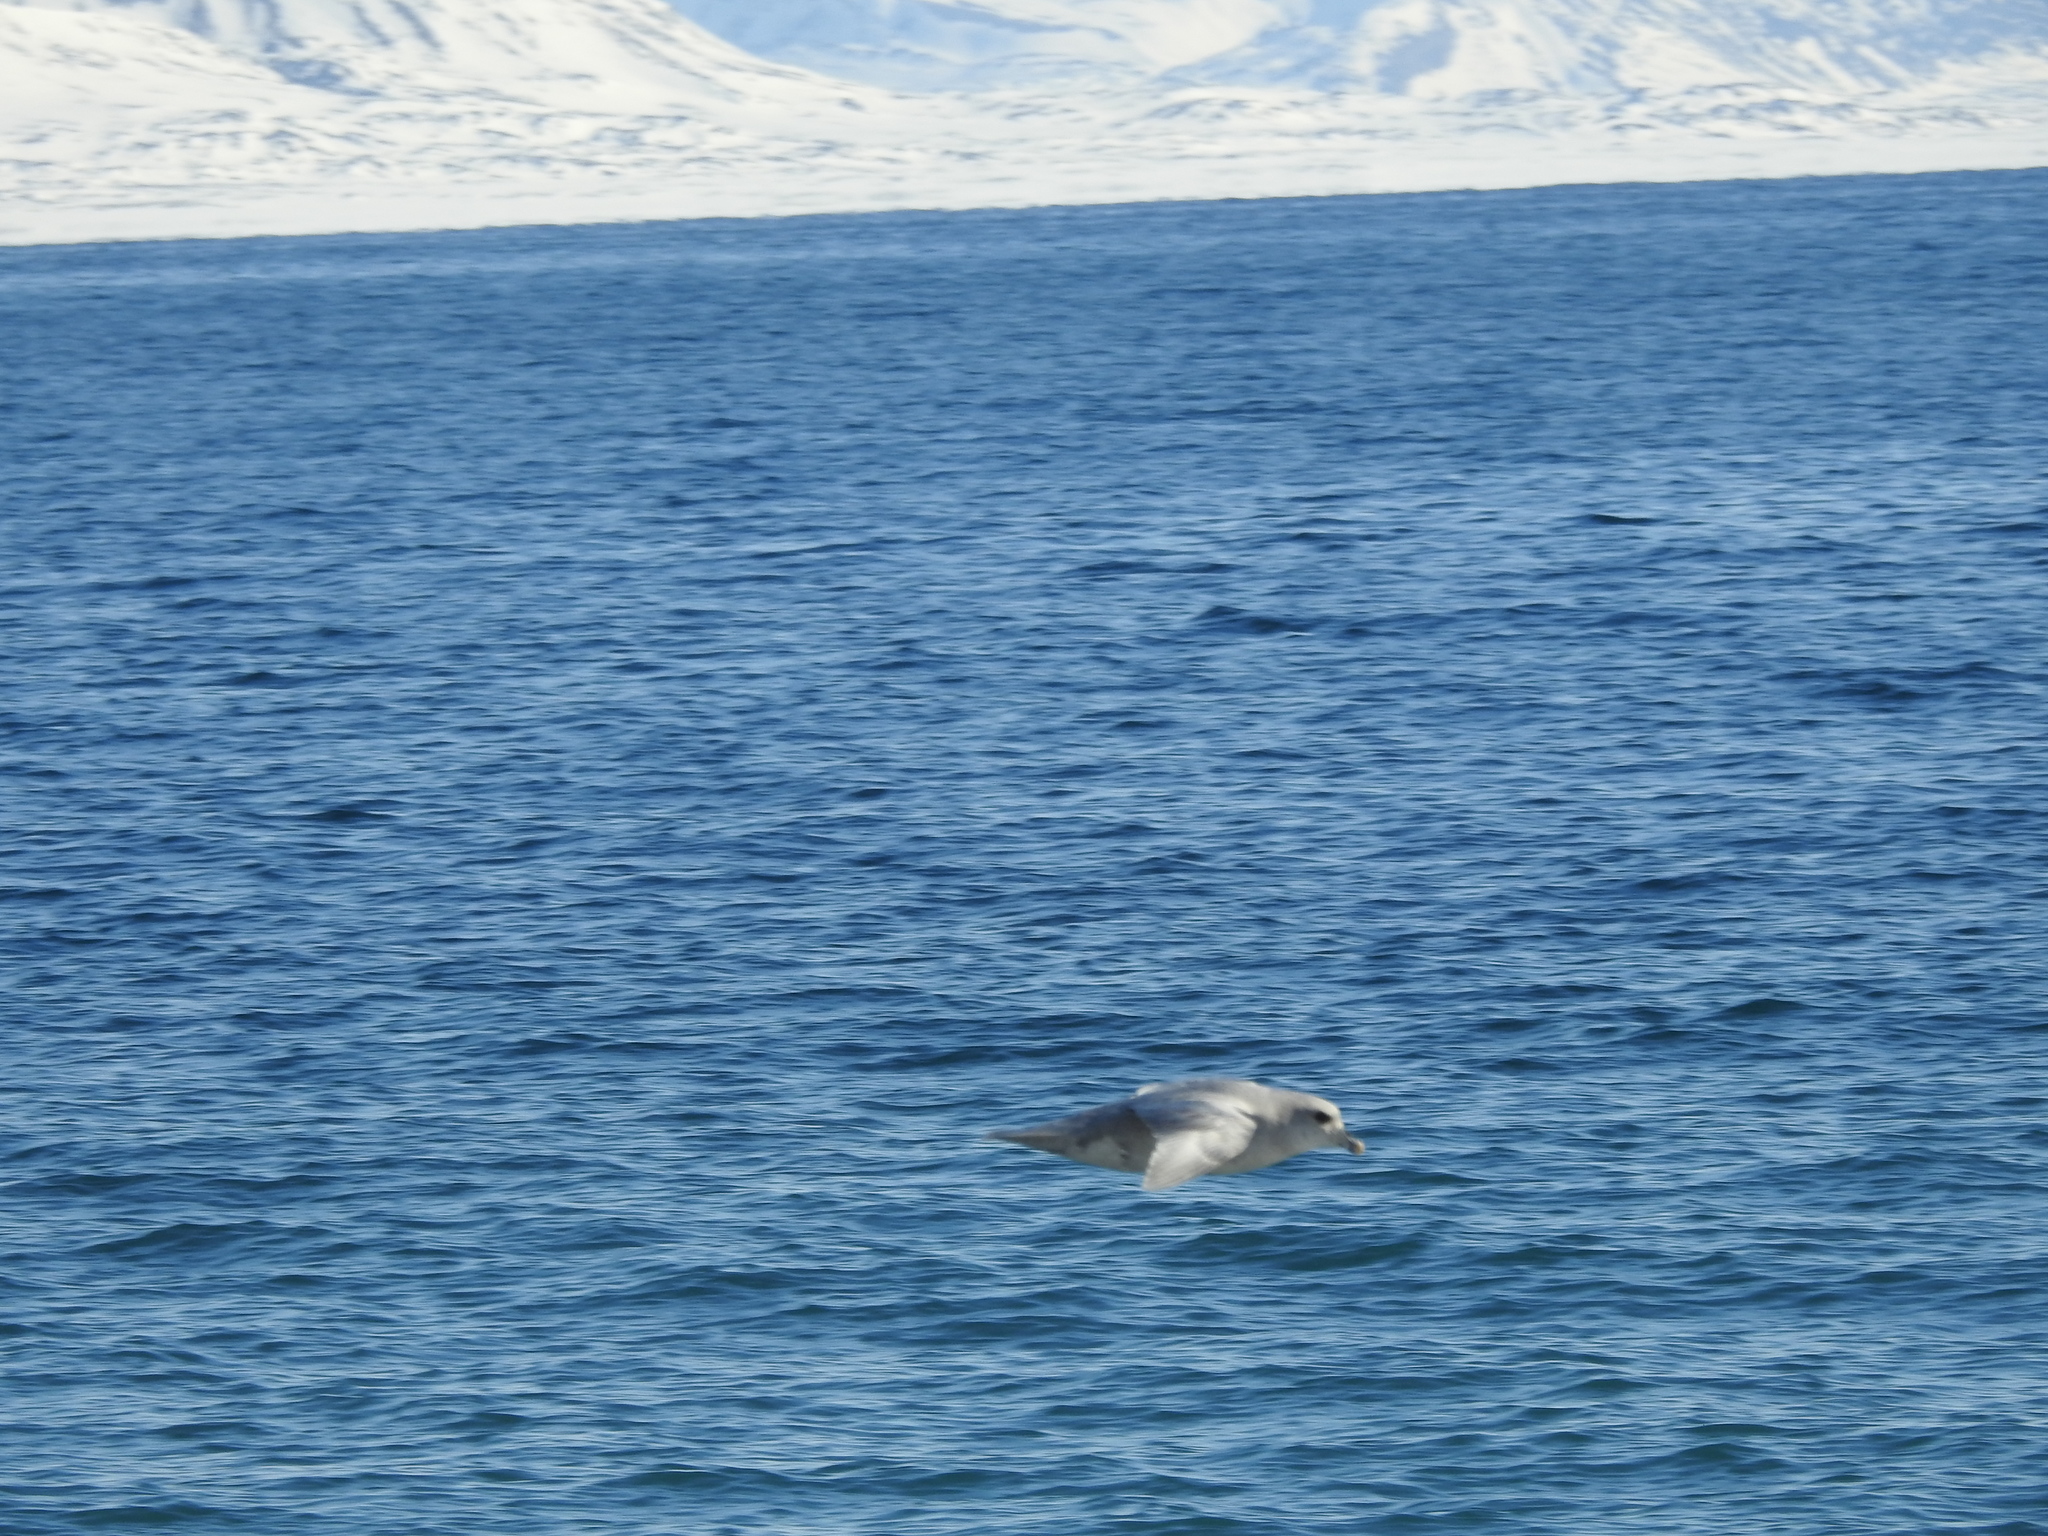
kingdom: Animalia
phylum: Chordata
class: Aves
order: Procellariiformes
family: Procellariidae
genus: Fulmarus
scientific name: Fulmarus glacialis
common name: Northern fulmar
